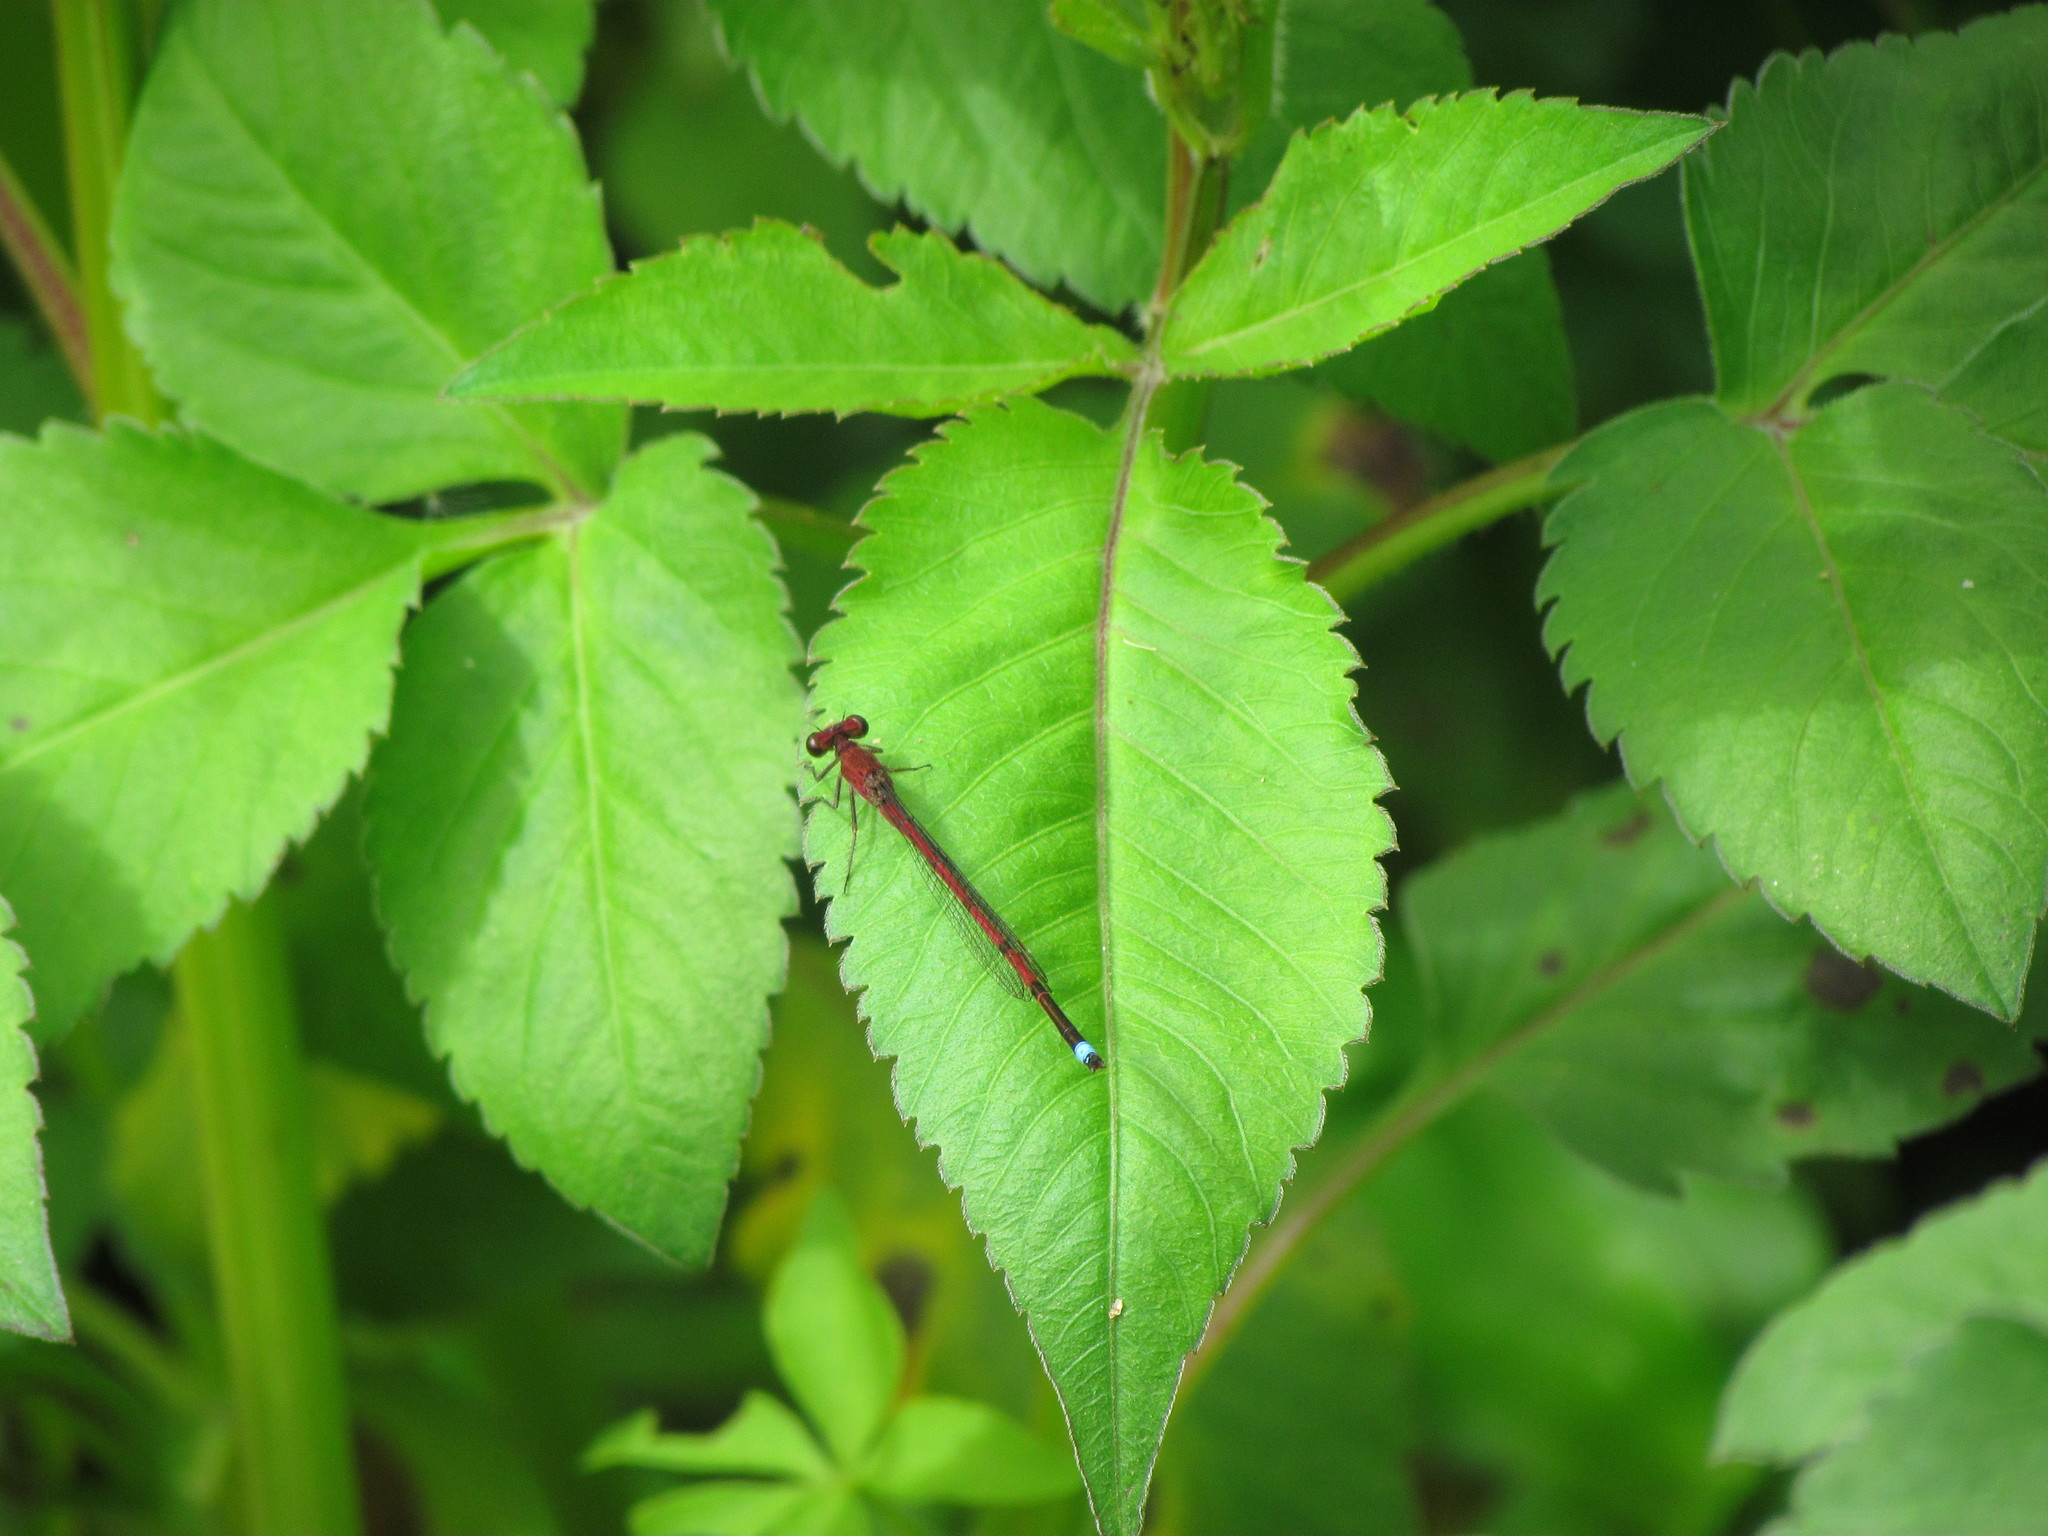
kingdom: Animalia
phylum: Arthropoda
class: Insecta
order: Odonata
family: Coenagrionidae
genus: Oxyagrion
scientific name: Oxyagrion terminale
